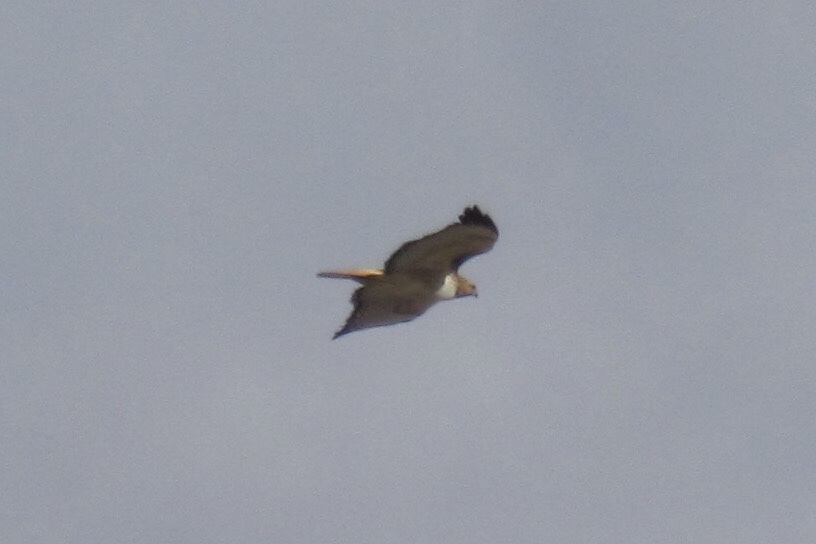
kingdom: Animalia
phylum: Chordata
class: Aves
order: Accipitriformes
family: Accipitridae
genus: Buteo
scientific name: Buteo jamaicensis
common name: Red-tailed hawk
